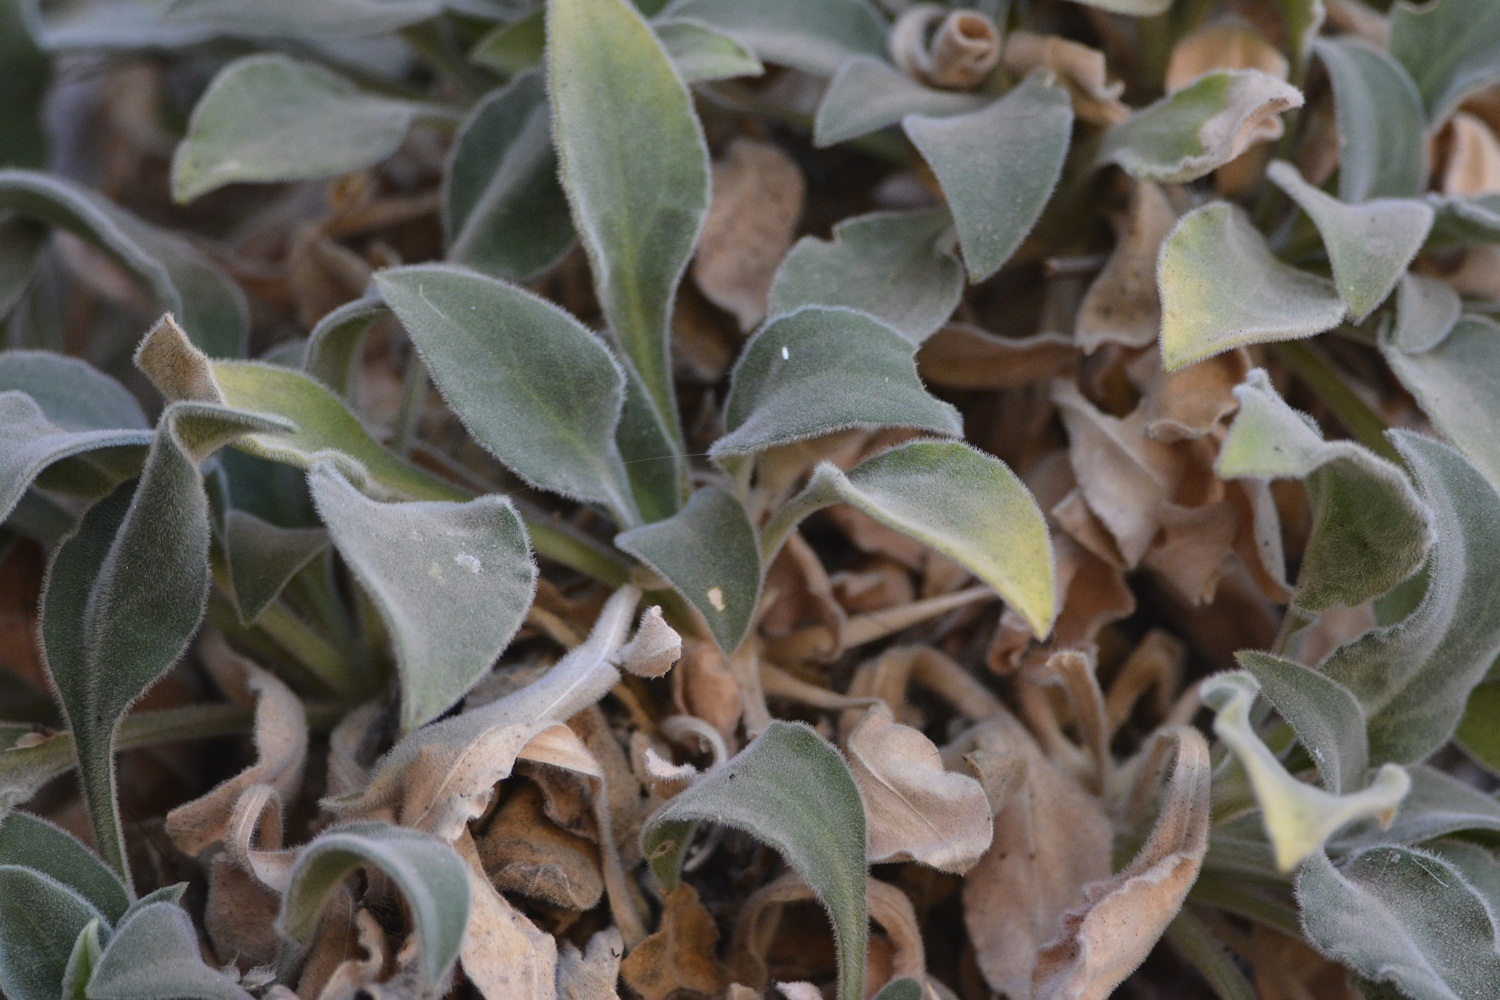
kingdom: Plantae
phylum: Tracheophyta
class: Magnoliopsida
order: Caryophyllales
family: Caryophyllaceae
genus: Silene
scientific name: Silene andryalifolia
